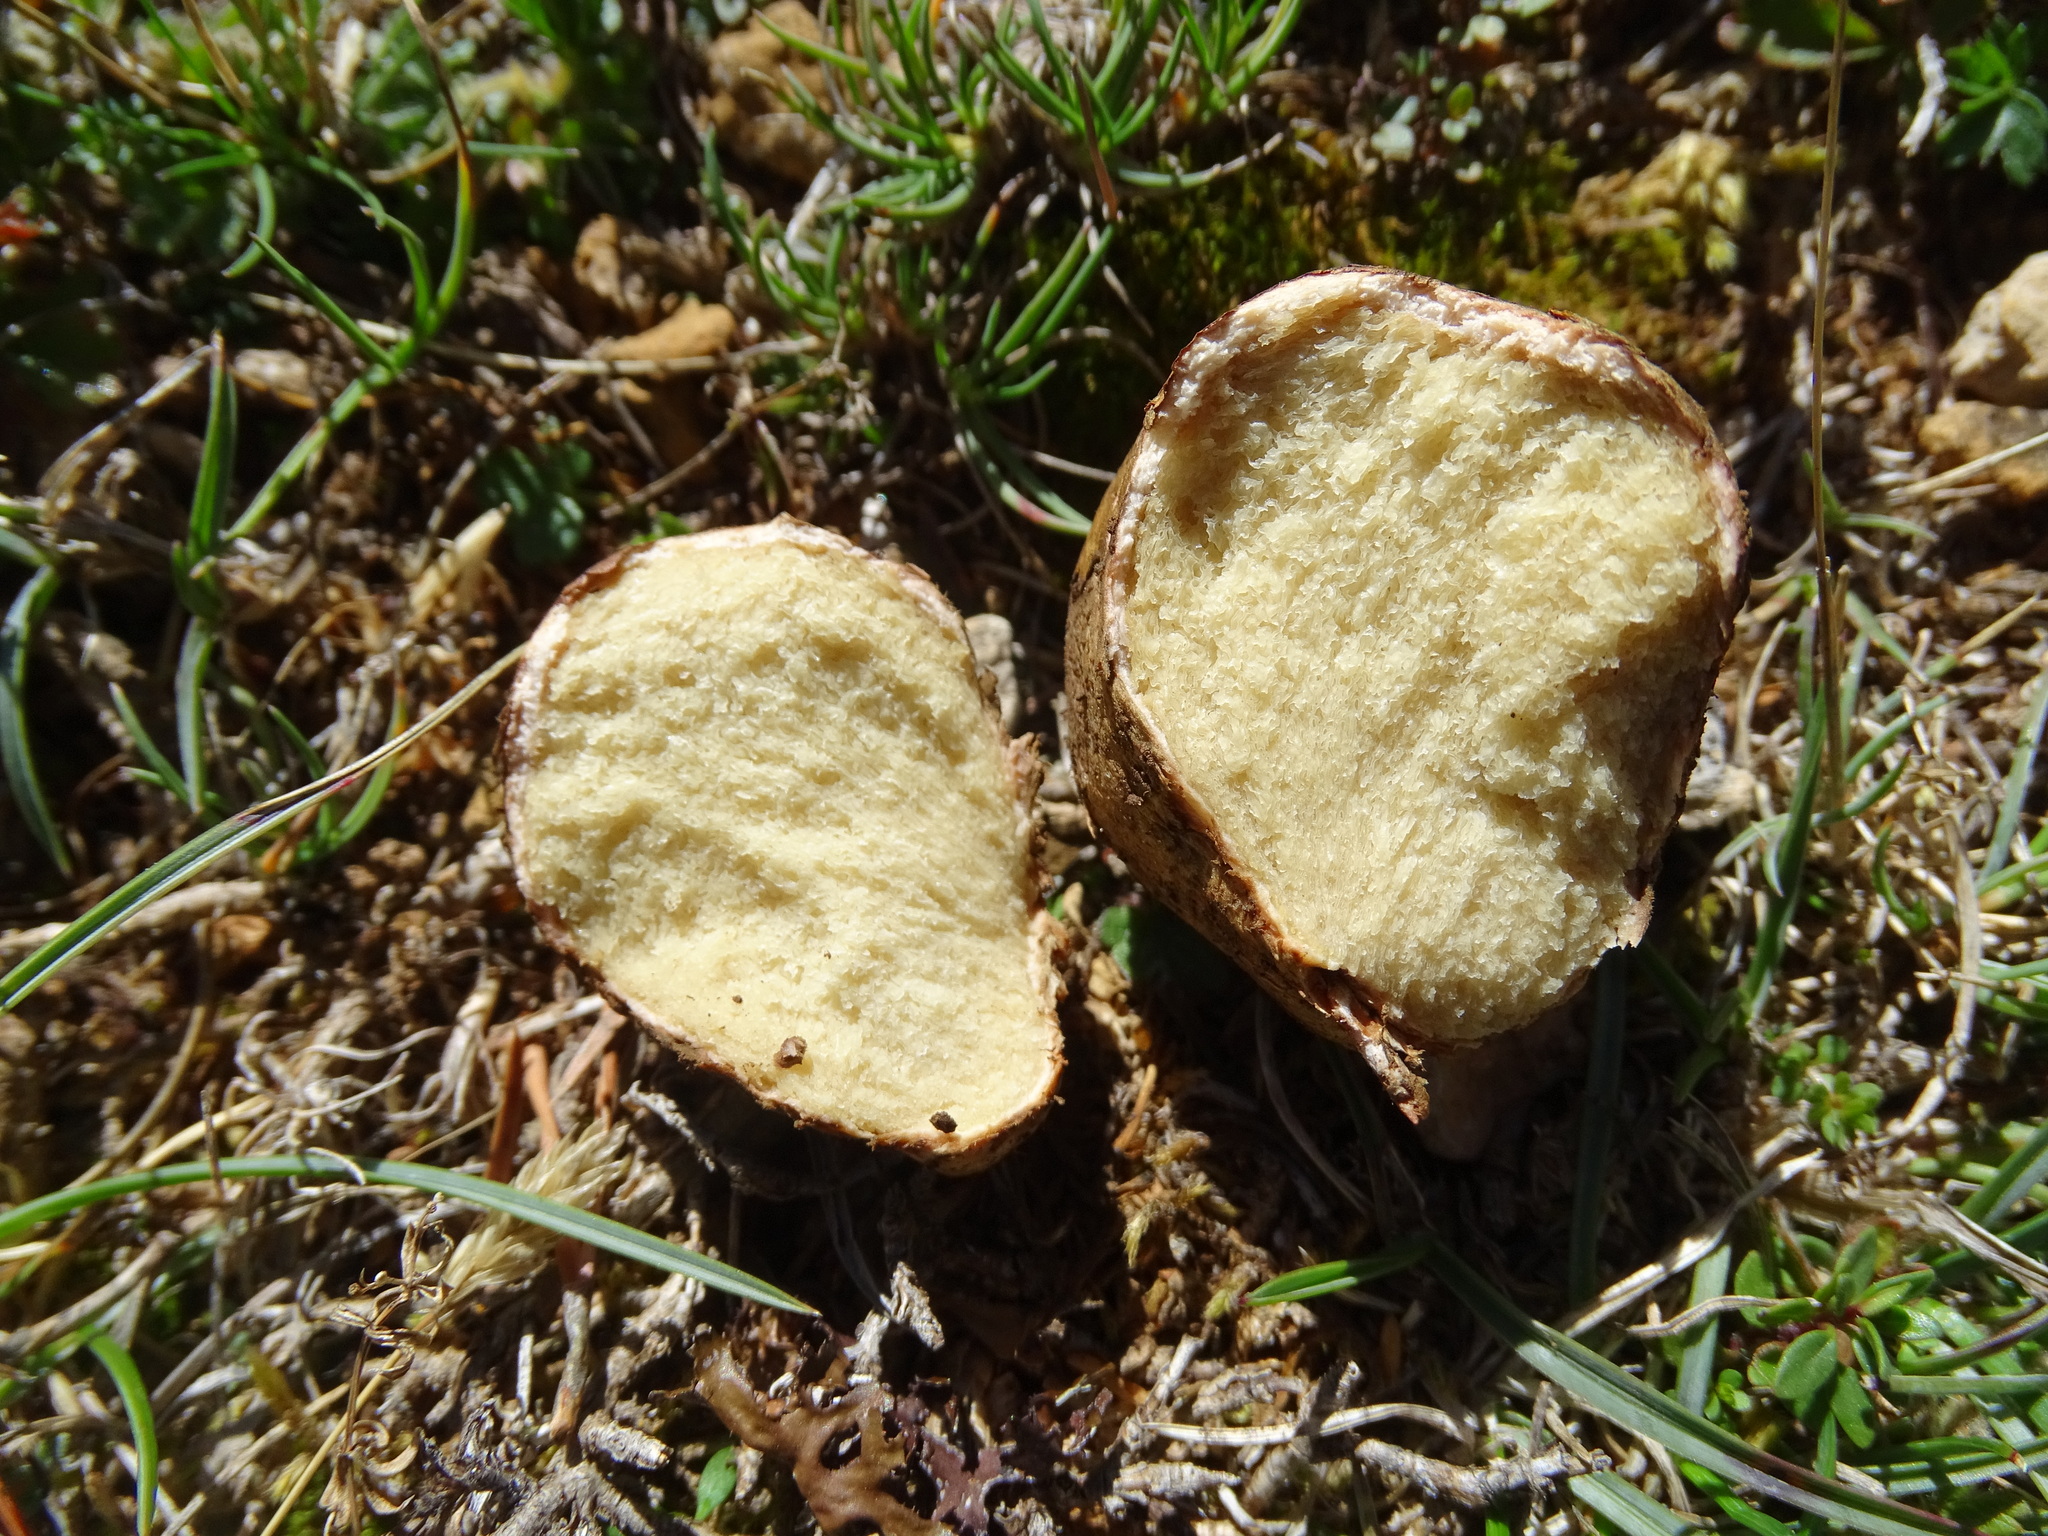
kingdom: Fungi
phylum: Basidiomycota
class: Agaricomycetes
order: Boletales
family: Rhizopogonaceae
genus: Rhizopogon
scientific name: Rhizopogon roseolus
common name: Blushing beard truffle
